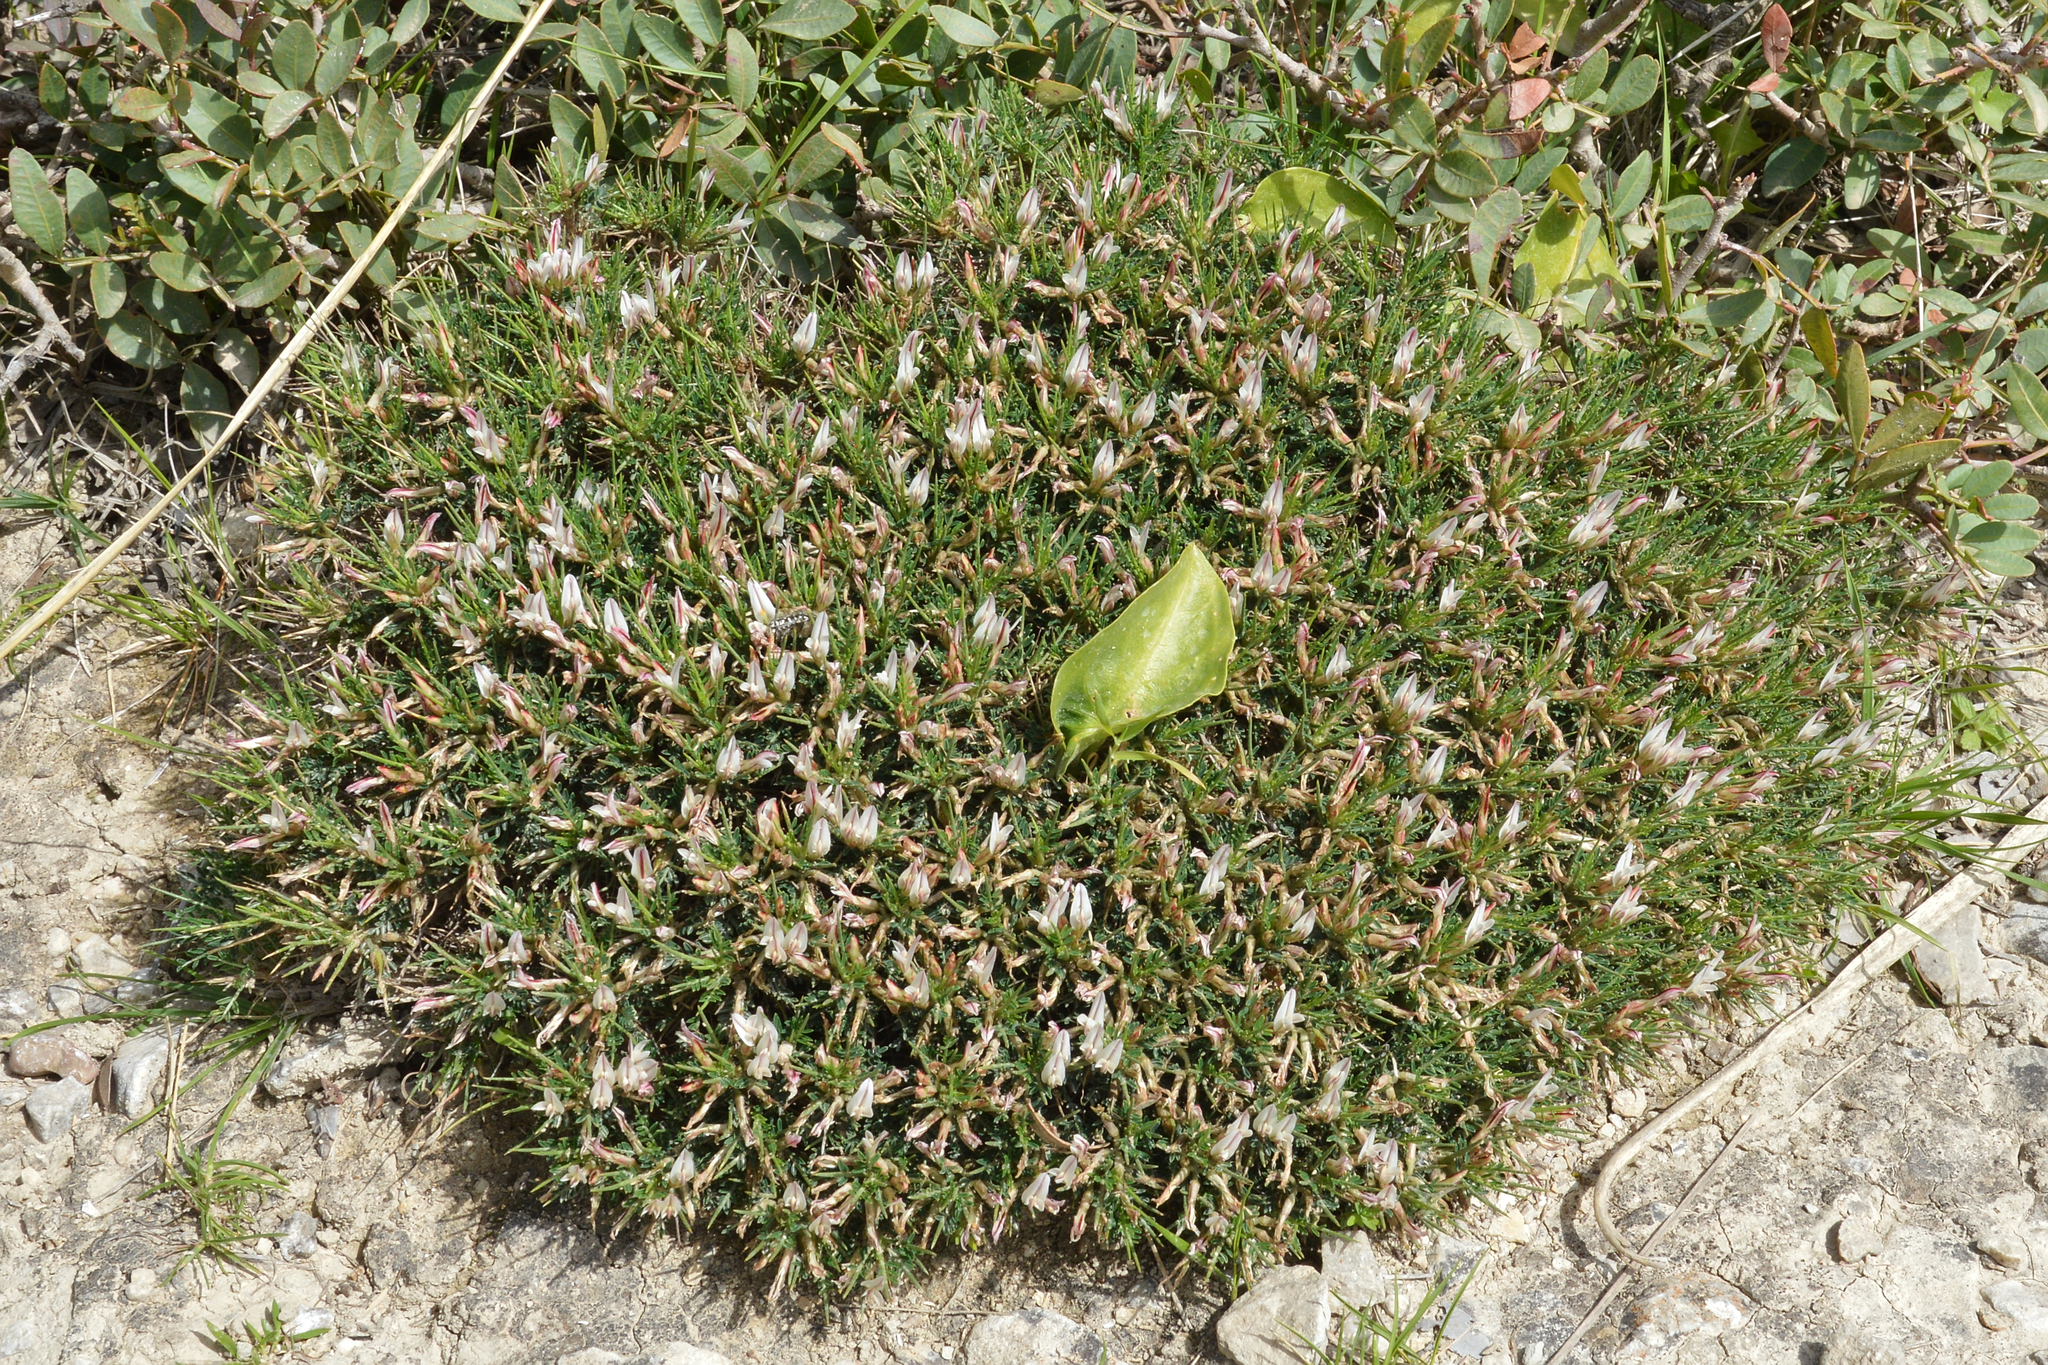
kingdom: Plantae
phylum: Tracheophyta
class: Magnoliopsida
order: Fabales
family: Fabaceae
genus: Astragalus
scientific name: Astragalus balearicus
